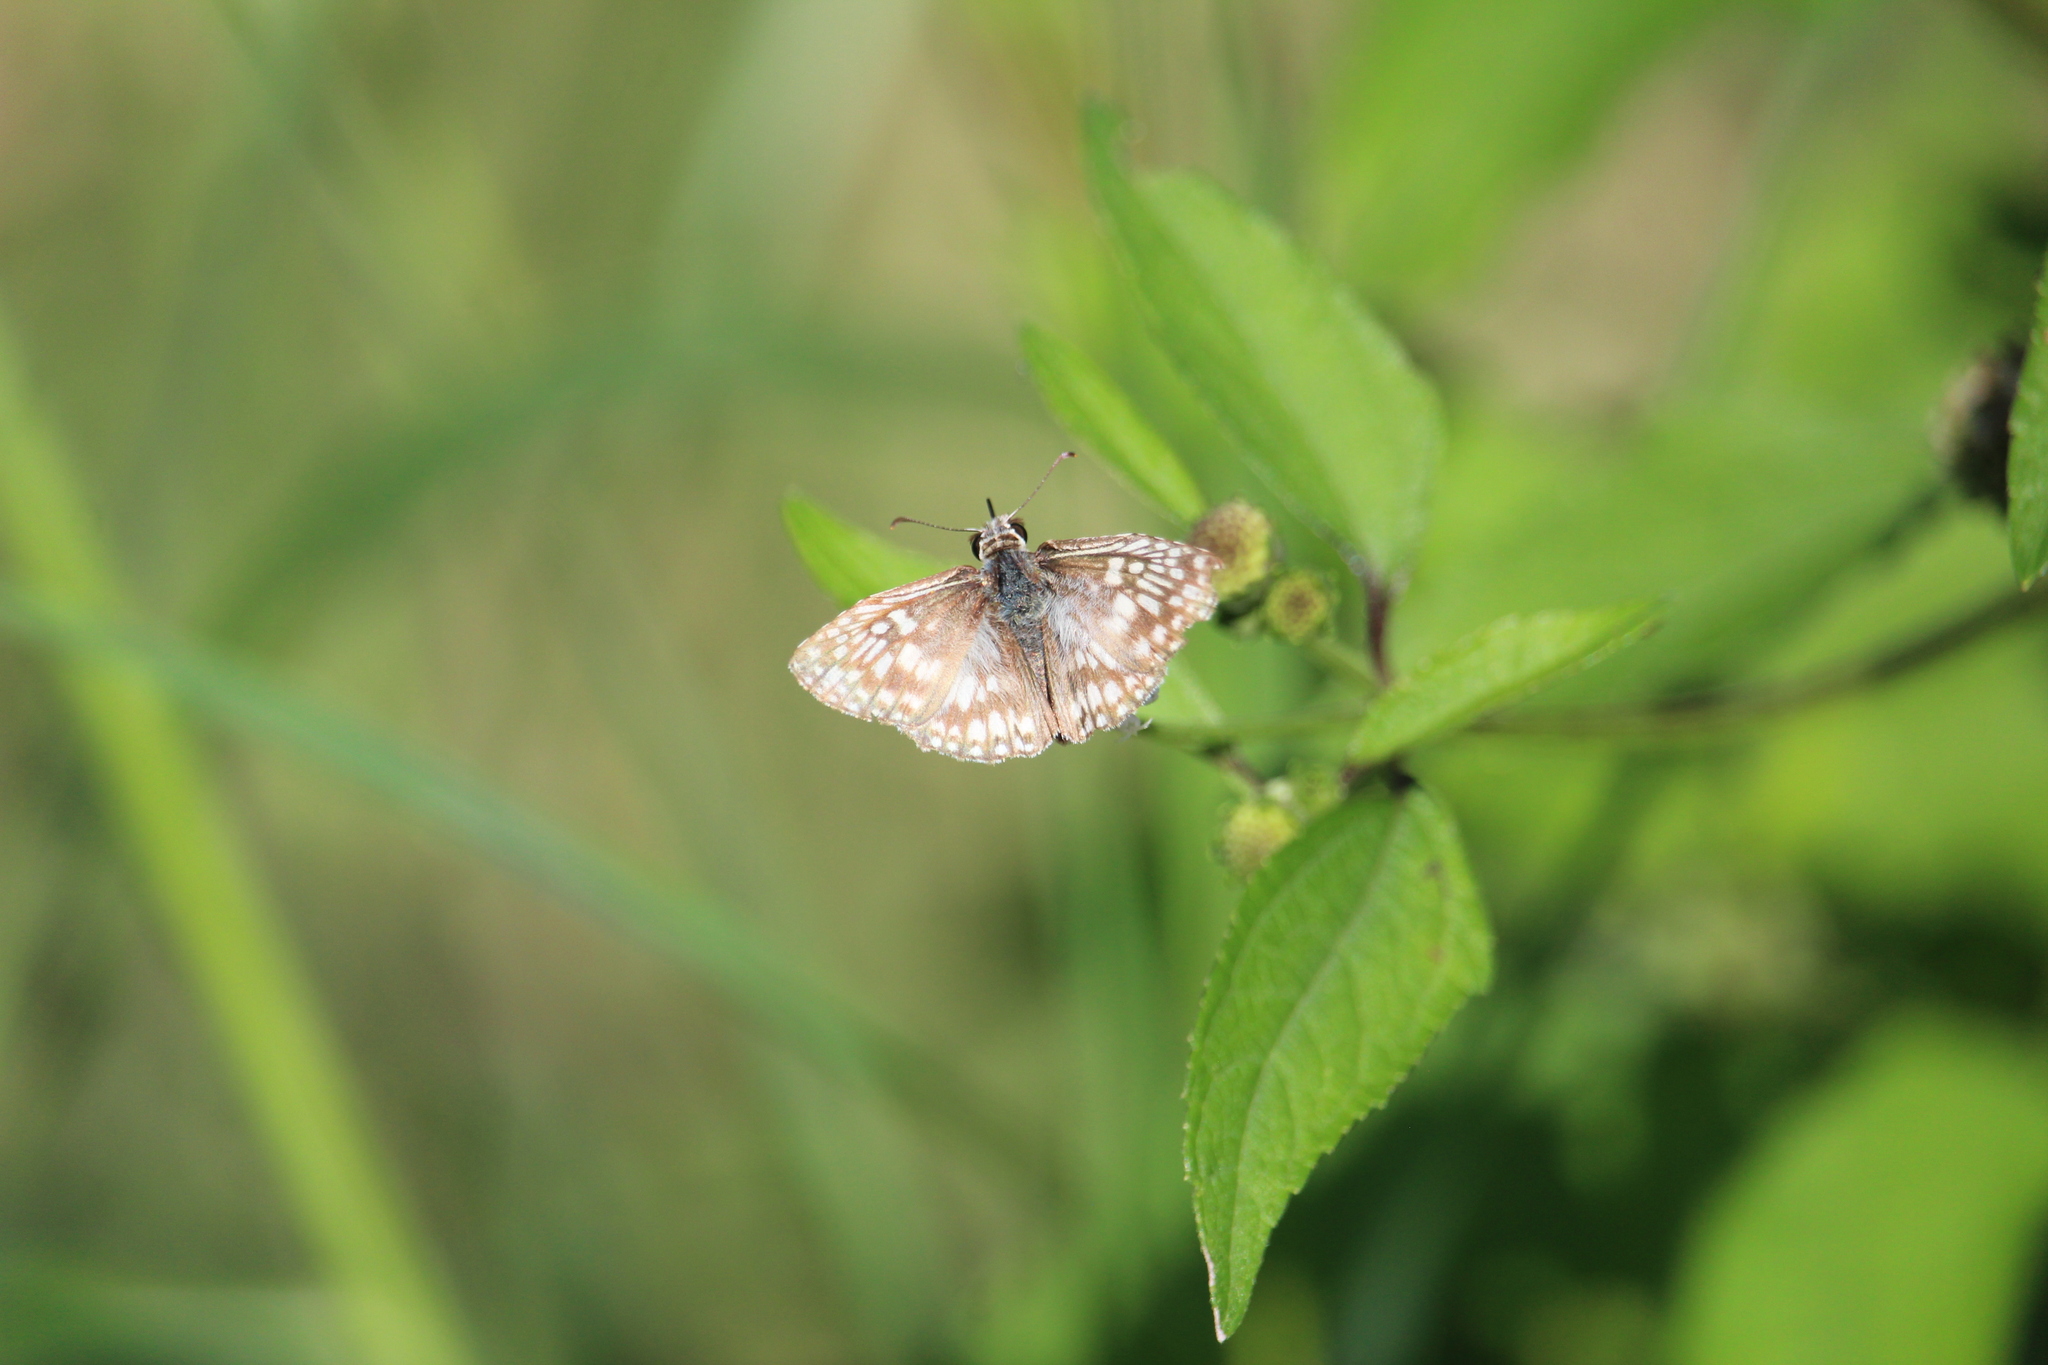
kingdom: Animalia
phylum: Arthropoda
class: Insecta
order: Lepidoptera
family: Hesperiidae
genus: Pyrgus
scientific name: Pyrgus oileus
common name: Tropical checkered-skipper
